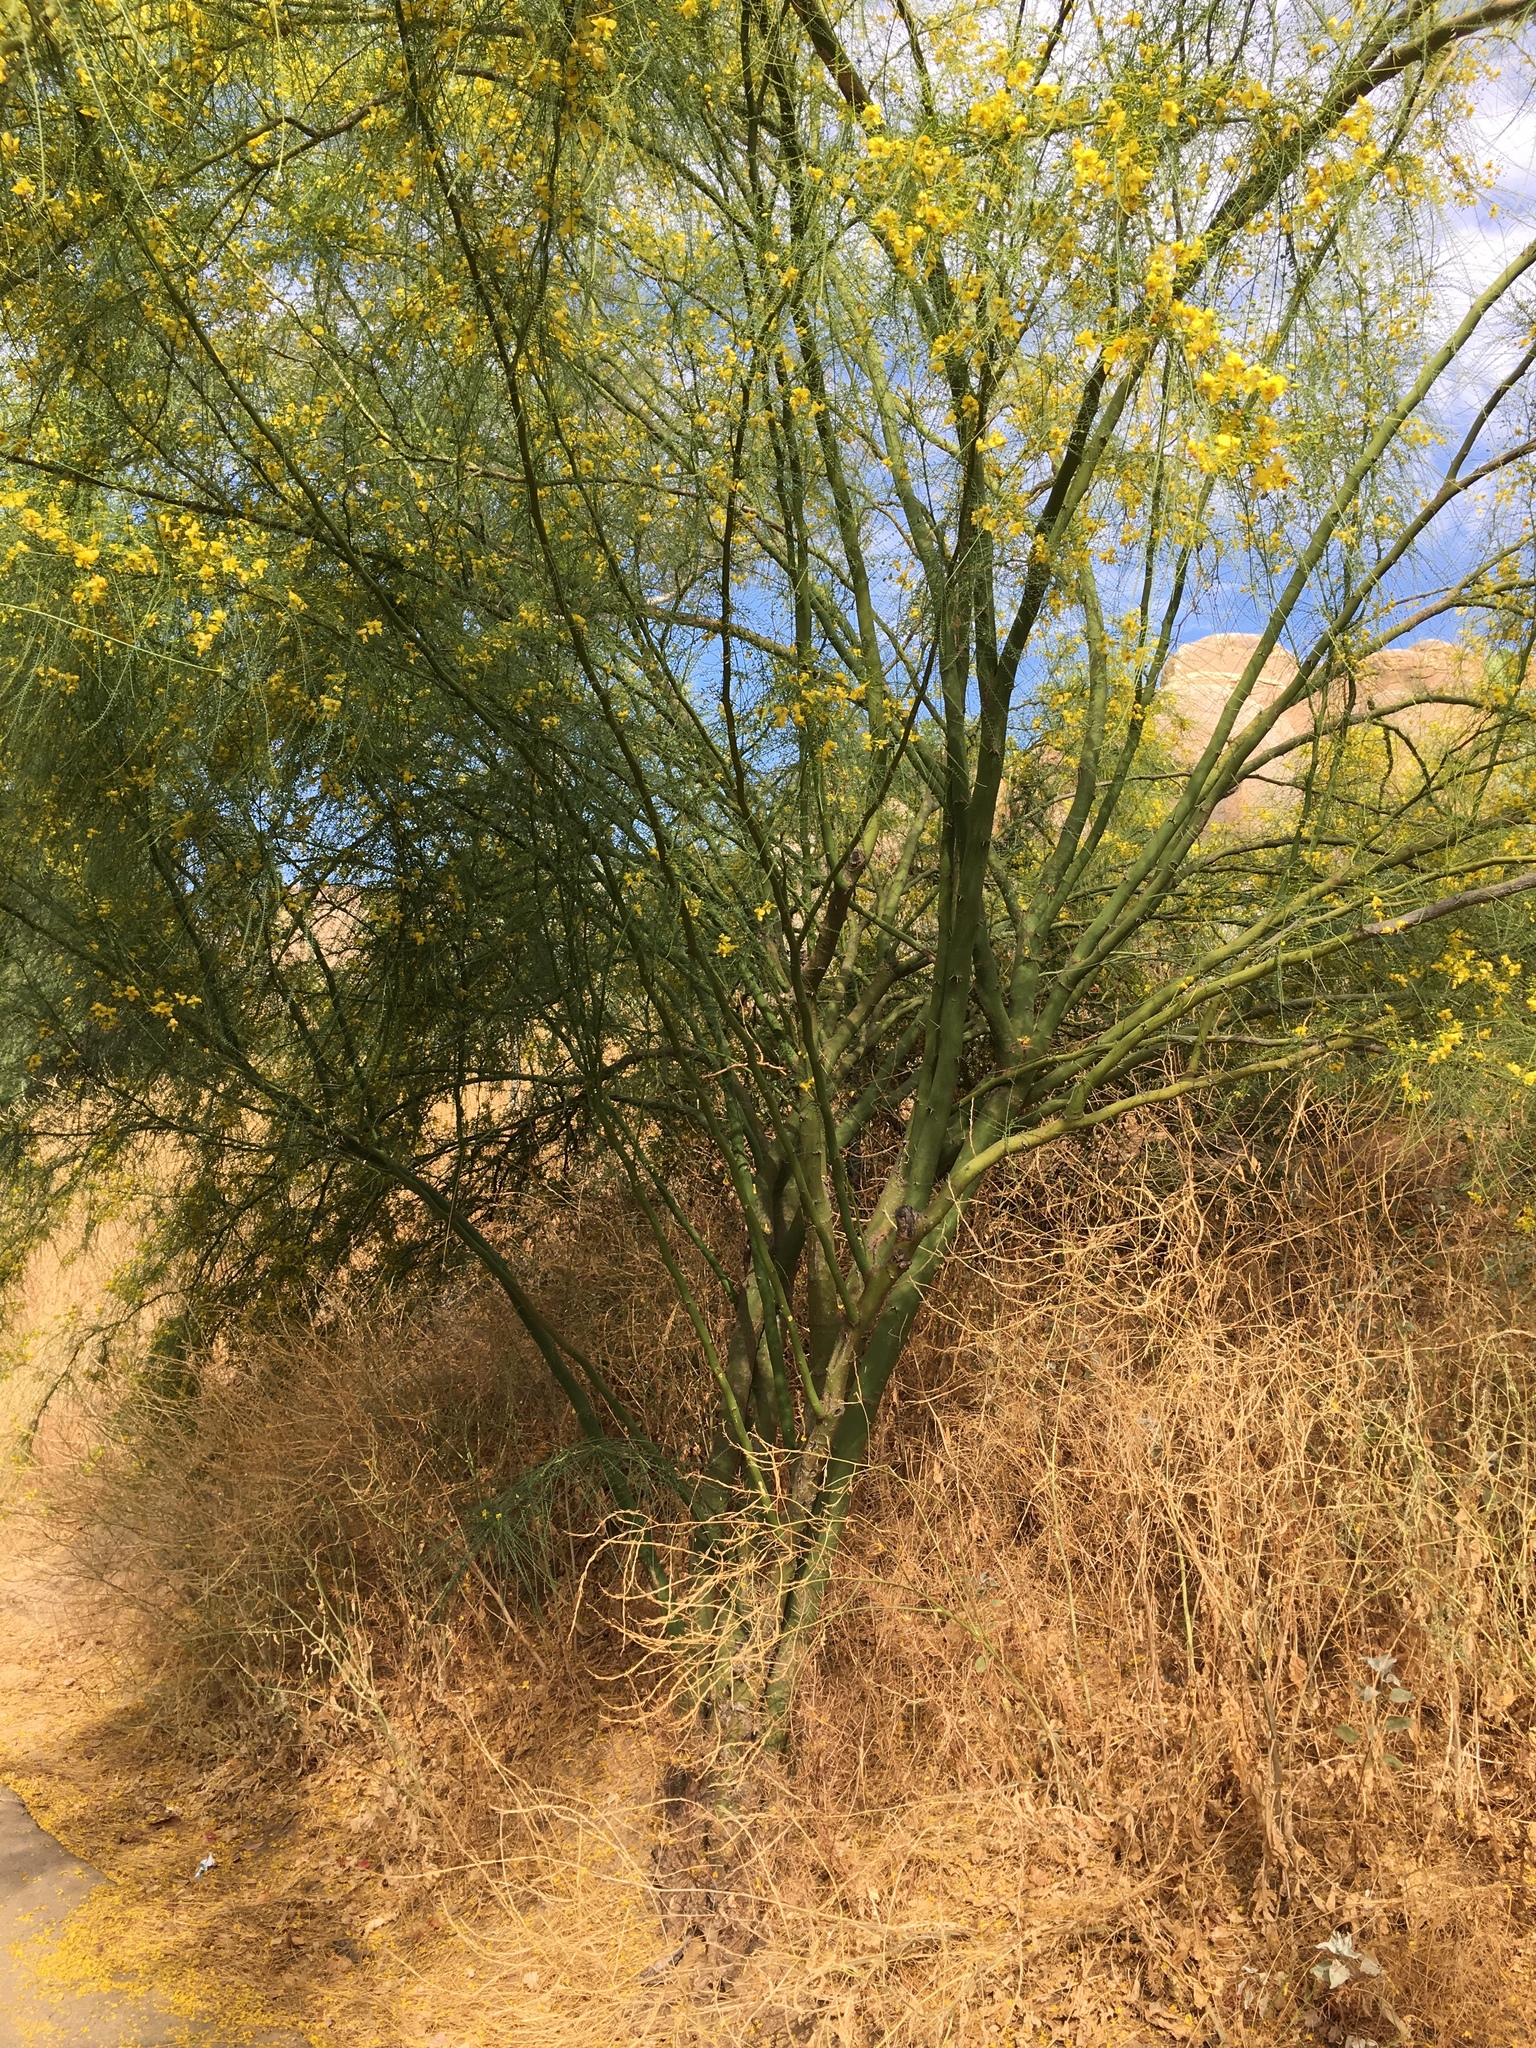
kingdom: Plantae
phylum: Tracheophyta
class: Magnoliopsida
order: Fabales
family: Fabaceae
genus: Parkinsonia
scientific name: Parkinsonia aculeata
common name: Jerusalem thorn
